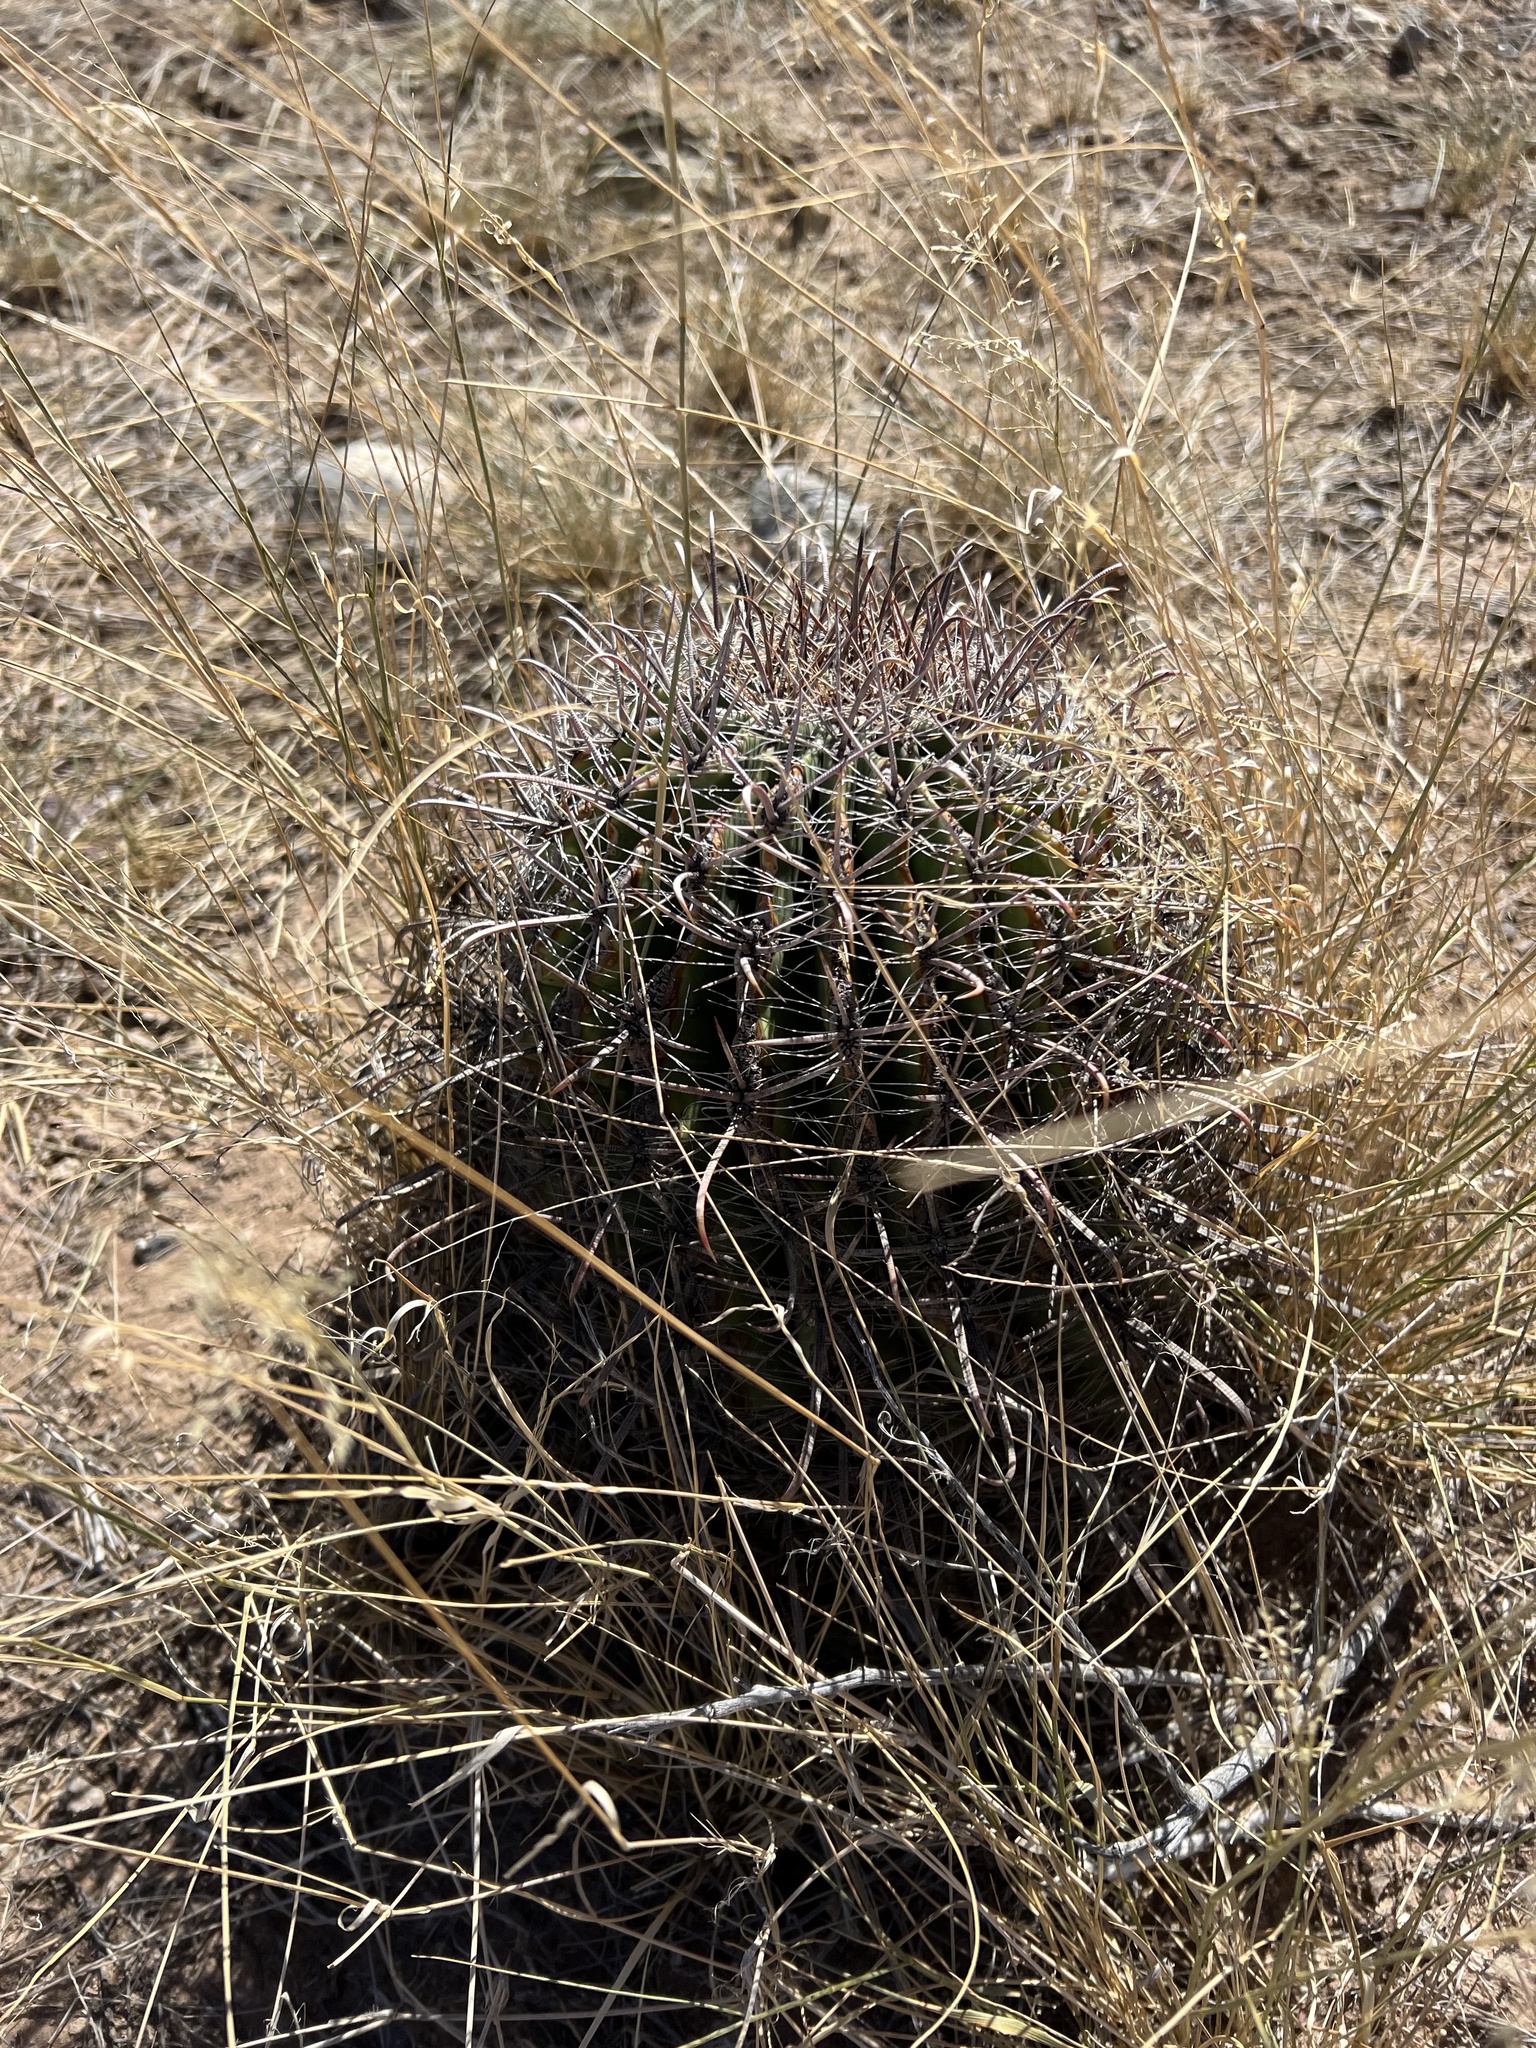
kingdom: Plantae
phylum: Tracheophyta
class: Magnoliopsida
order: Caryophyllales
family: Cactaceae
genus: Ferocactus
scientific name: Ferocactus wislizeni
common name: Candy barrel cactus
